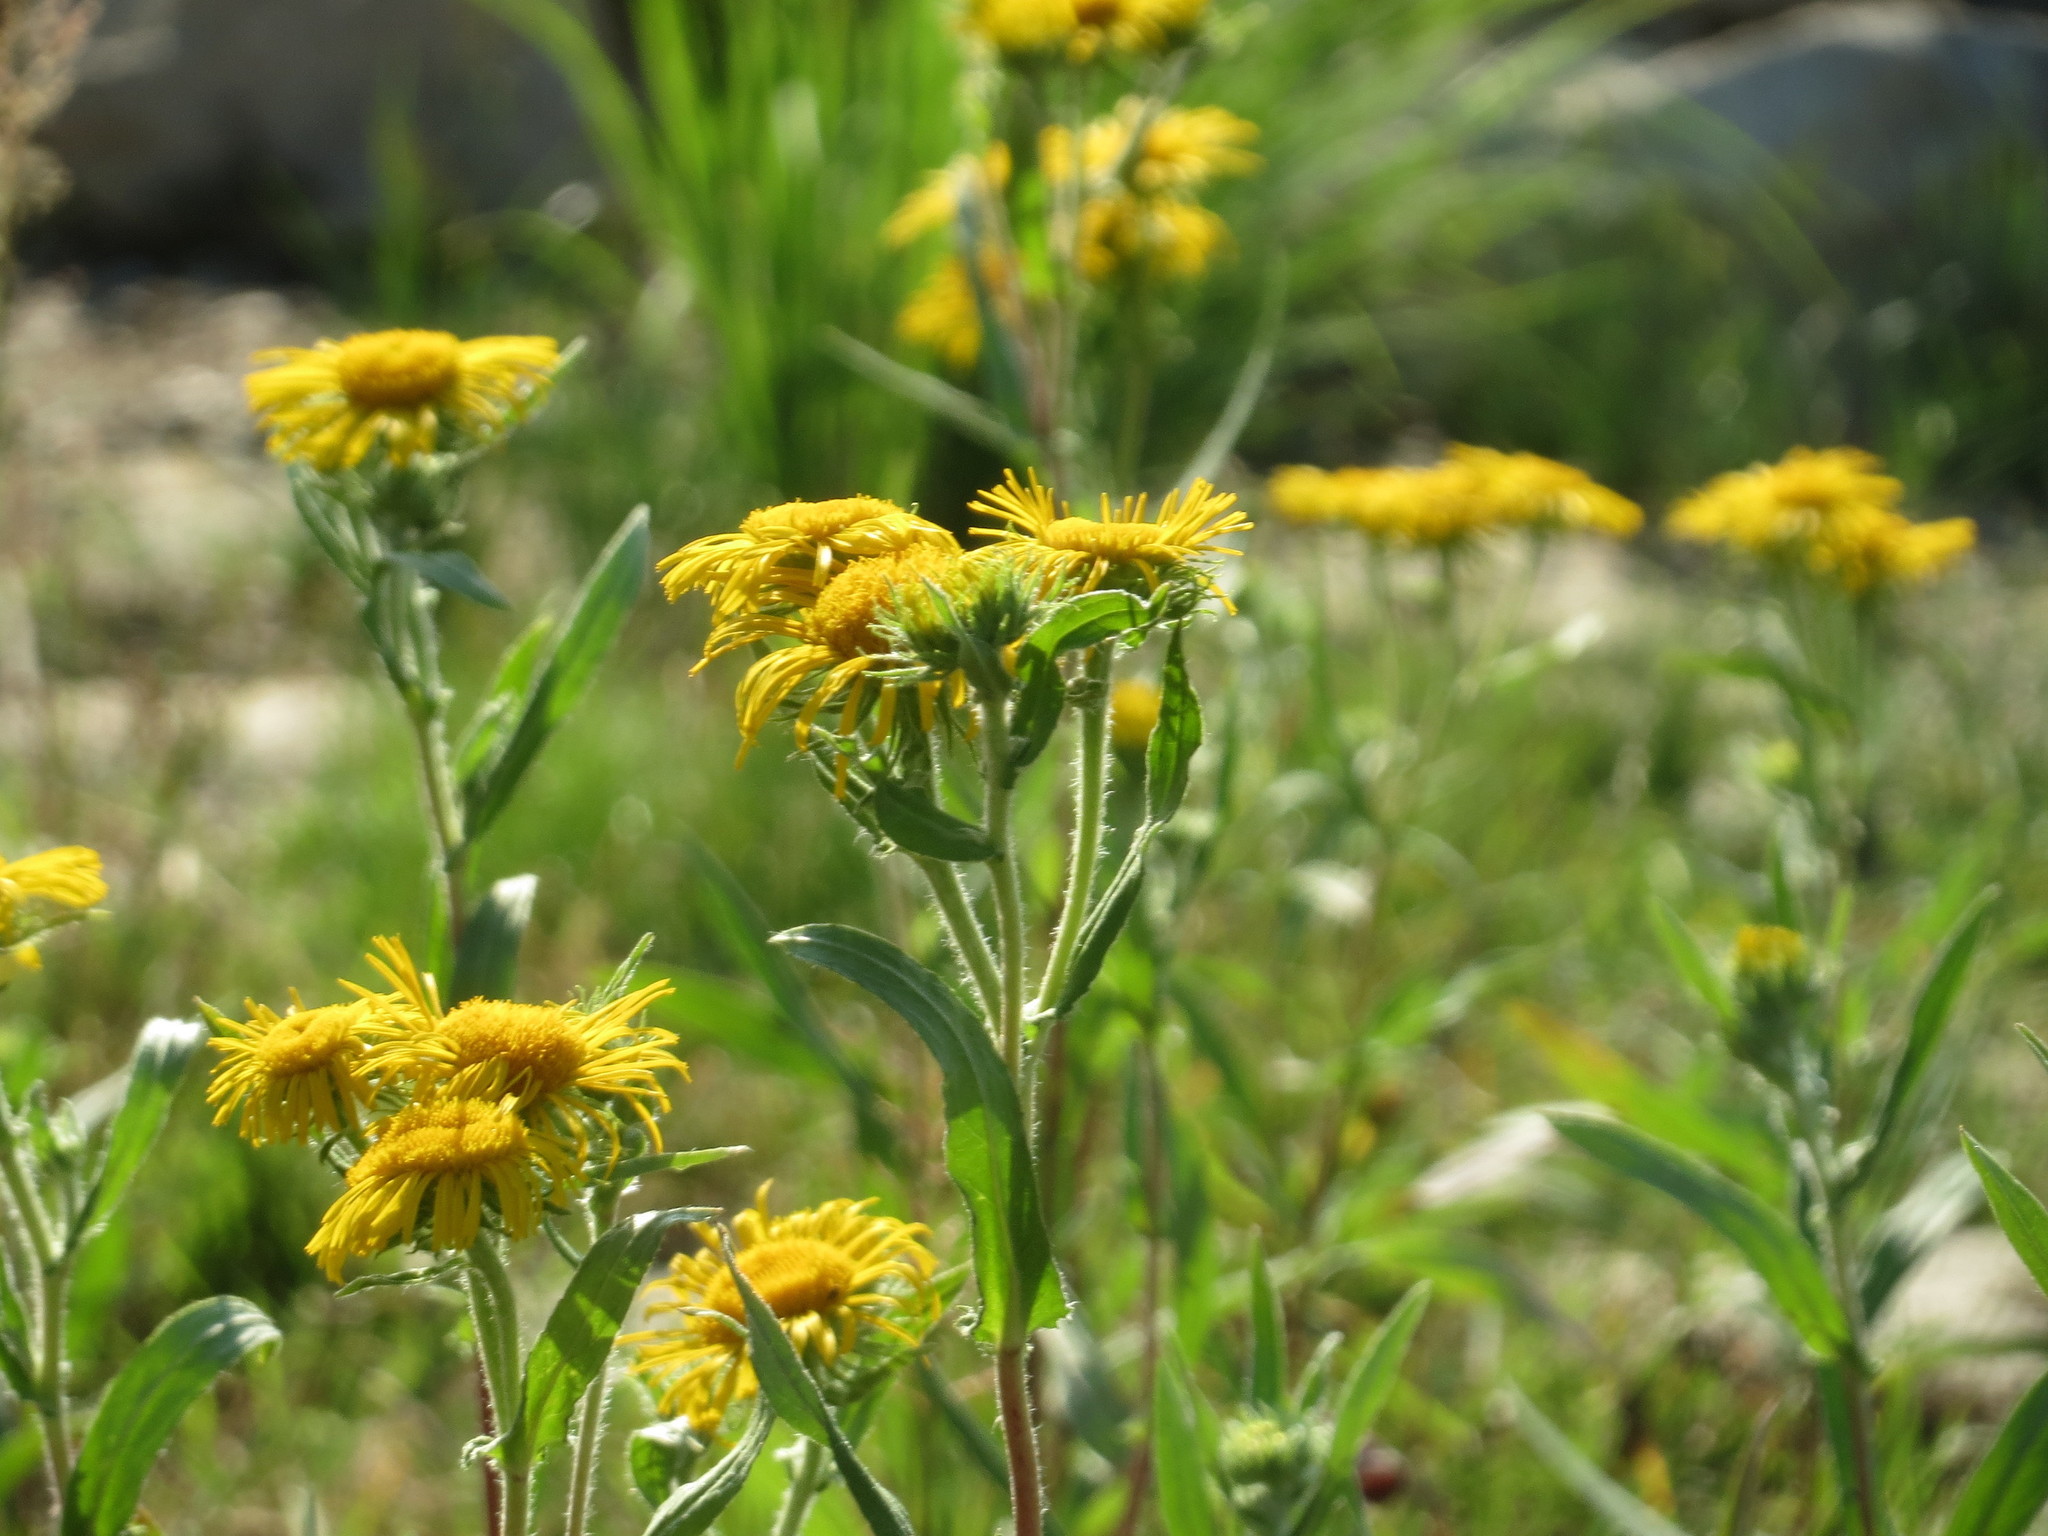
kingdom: Plantae
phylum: Tracheophyta
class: Magnoliopsida
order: Asterales
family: Asteraceae
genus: Pentanema
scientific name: Pentanema britannicum
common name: British elecampane
